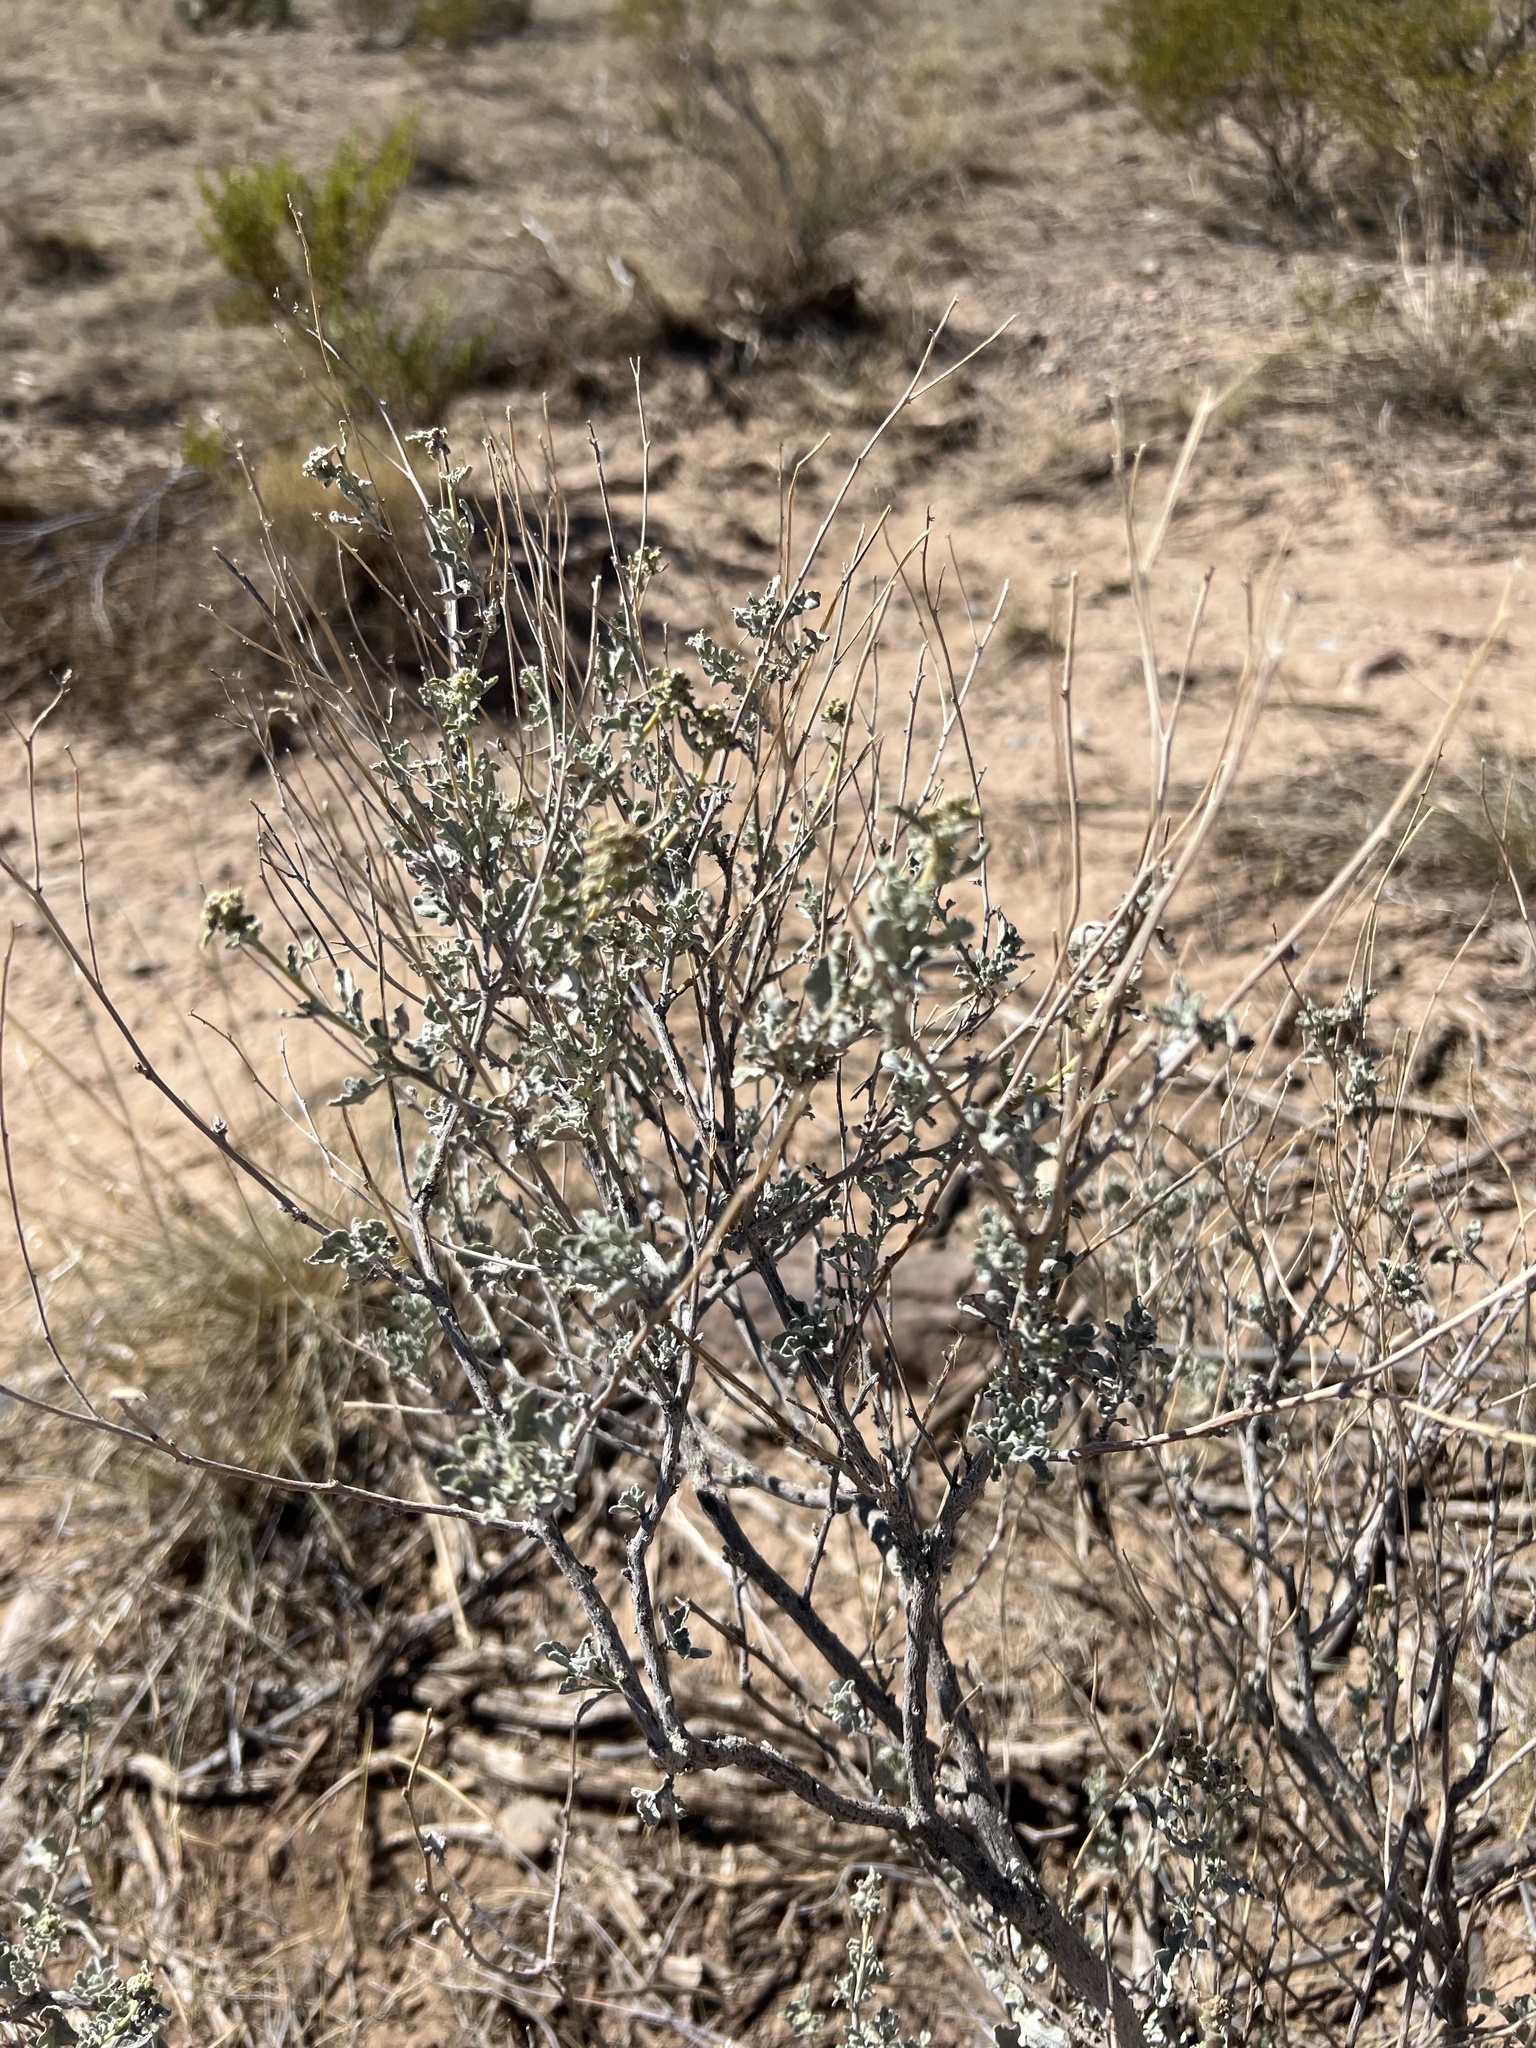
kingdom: Plantae
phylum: Tracheophyta
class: Magnoliopsida
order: Asterales
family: Asteraceae
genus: Parthenium
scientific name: Parthenium incanum
